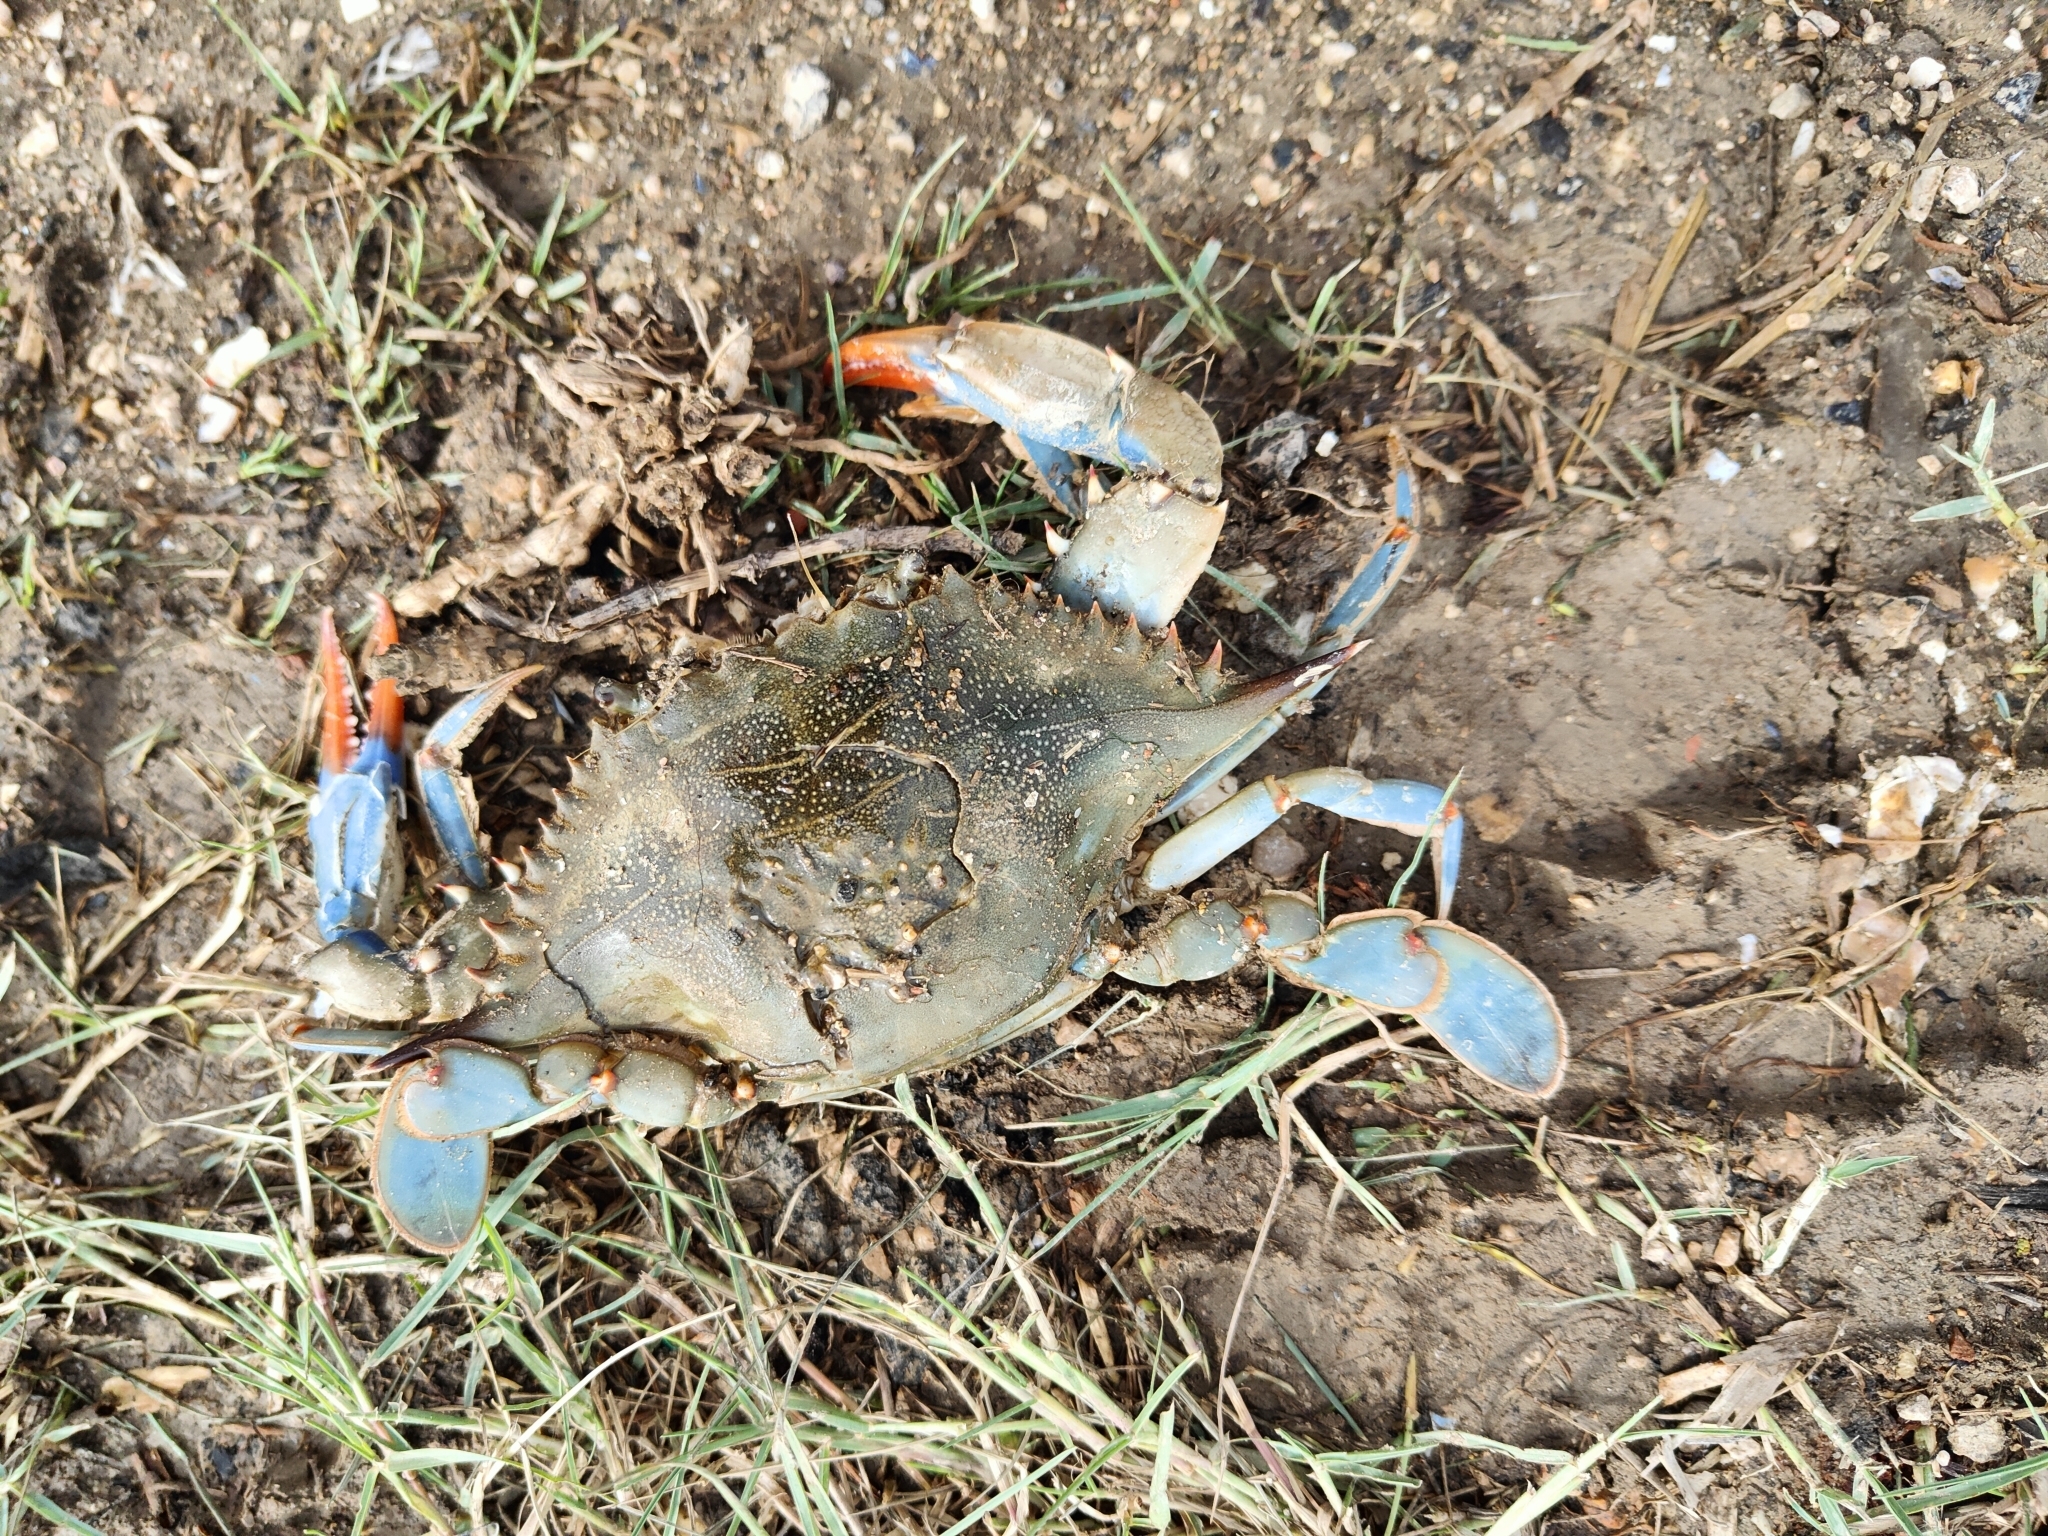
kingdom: Animalia
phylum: Arthropoda
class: Malacostraca
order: Decapoda
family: Portunidae
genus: Callinectes
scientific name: Callinectes sapidus
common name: Blue crab
